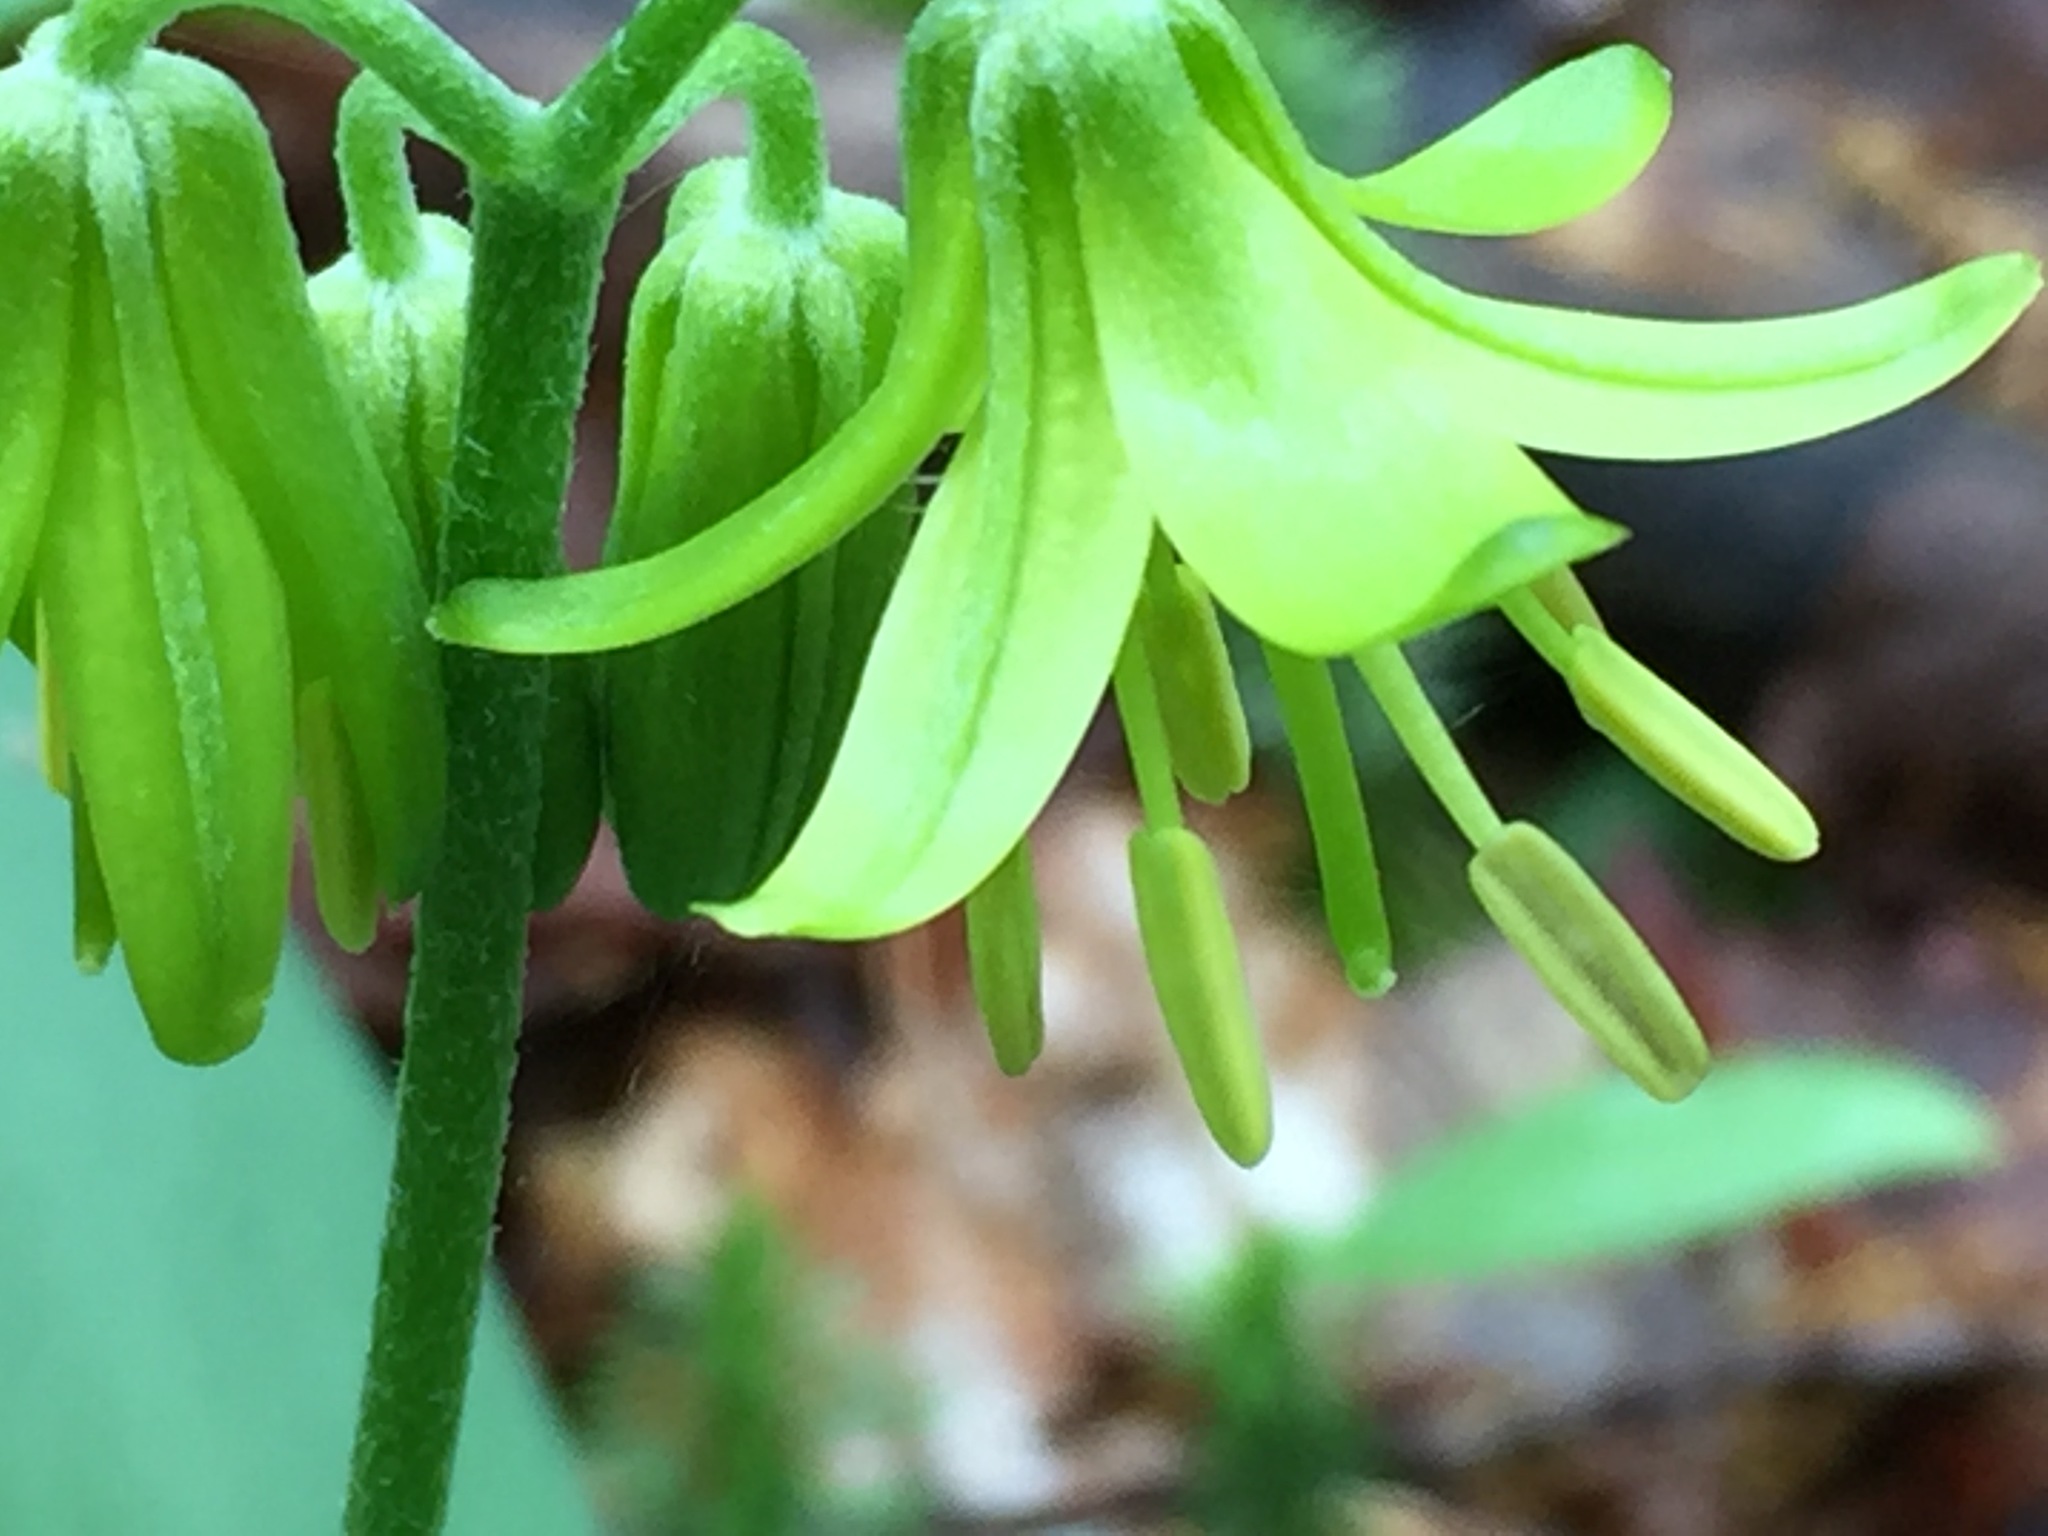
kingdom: Plantae
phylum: Tracheophyta
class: Liliopsida
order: Liliales
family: Liliaceae
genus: Clintonia
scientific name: Clintonia borealis
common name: Yellow clintonia
